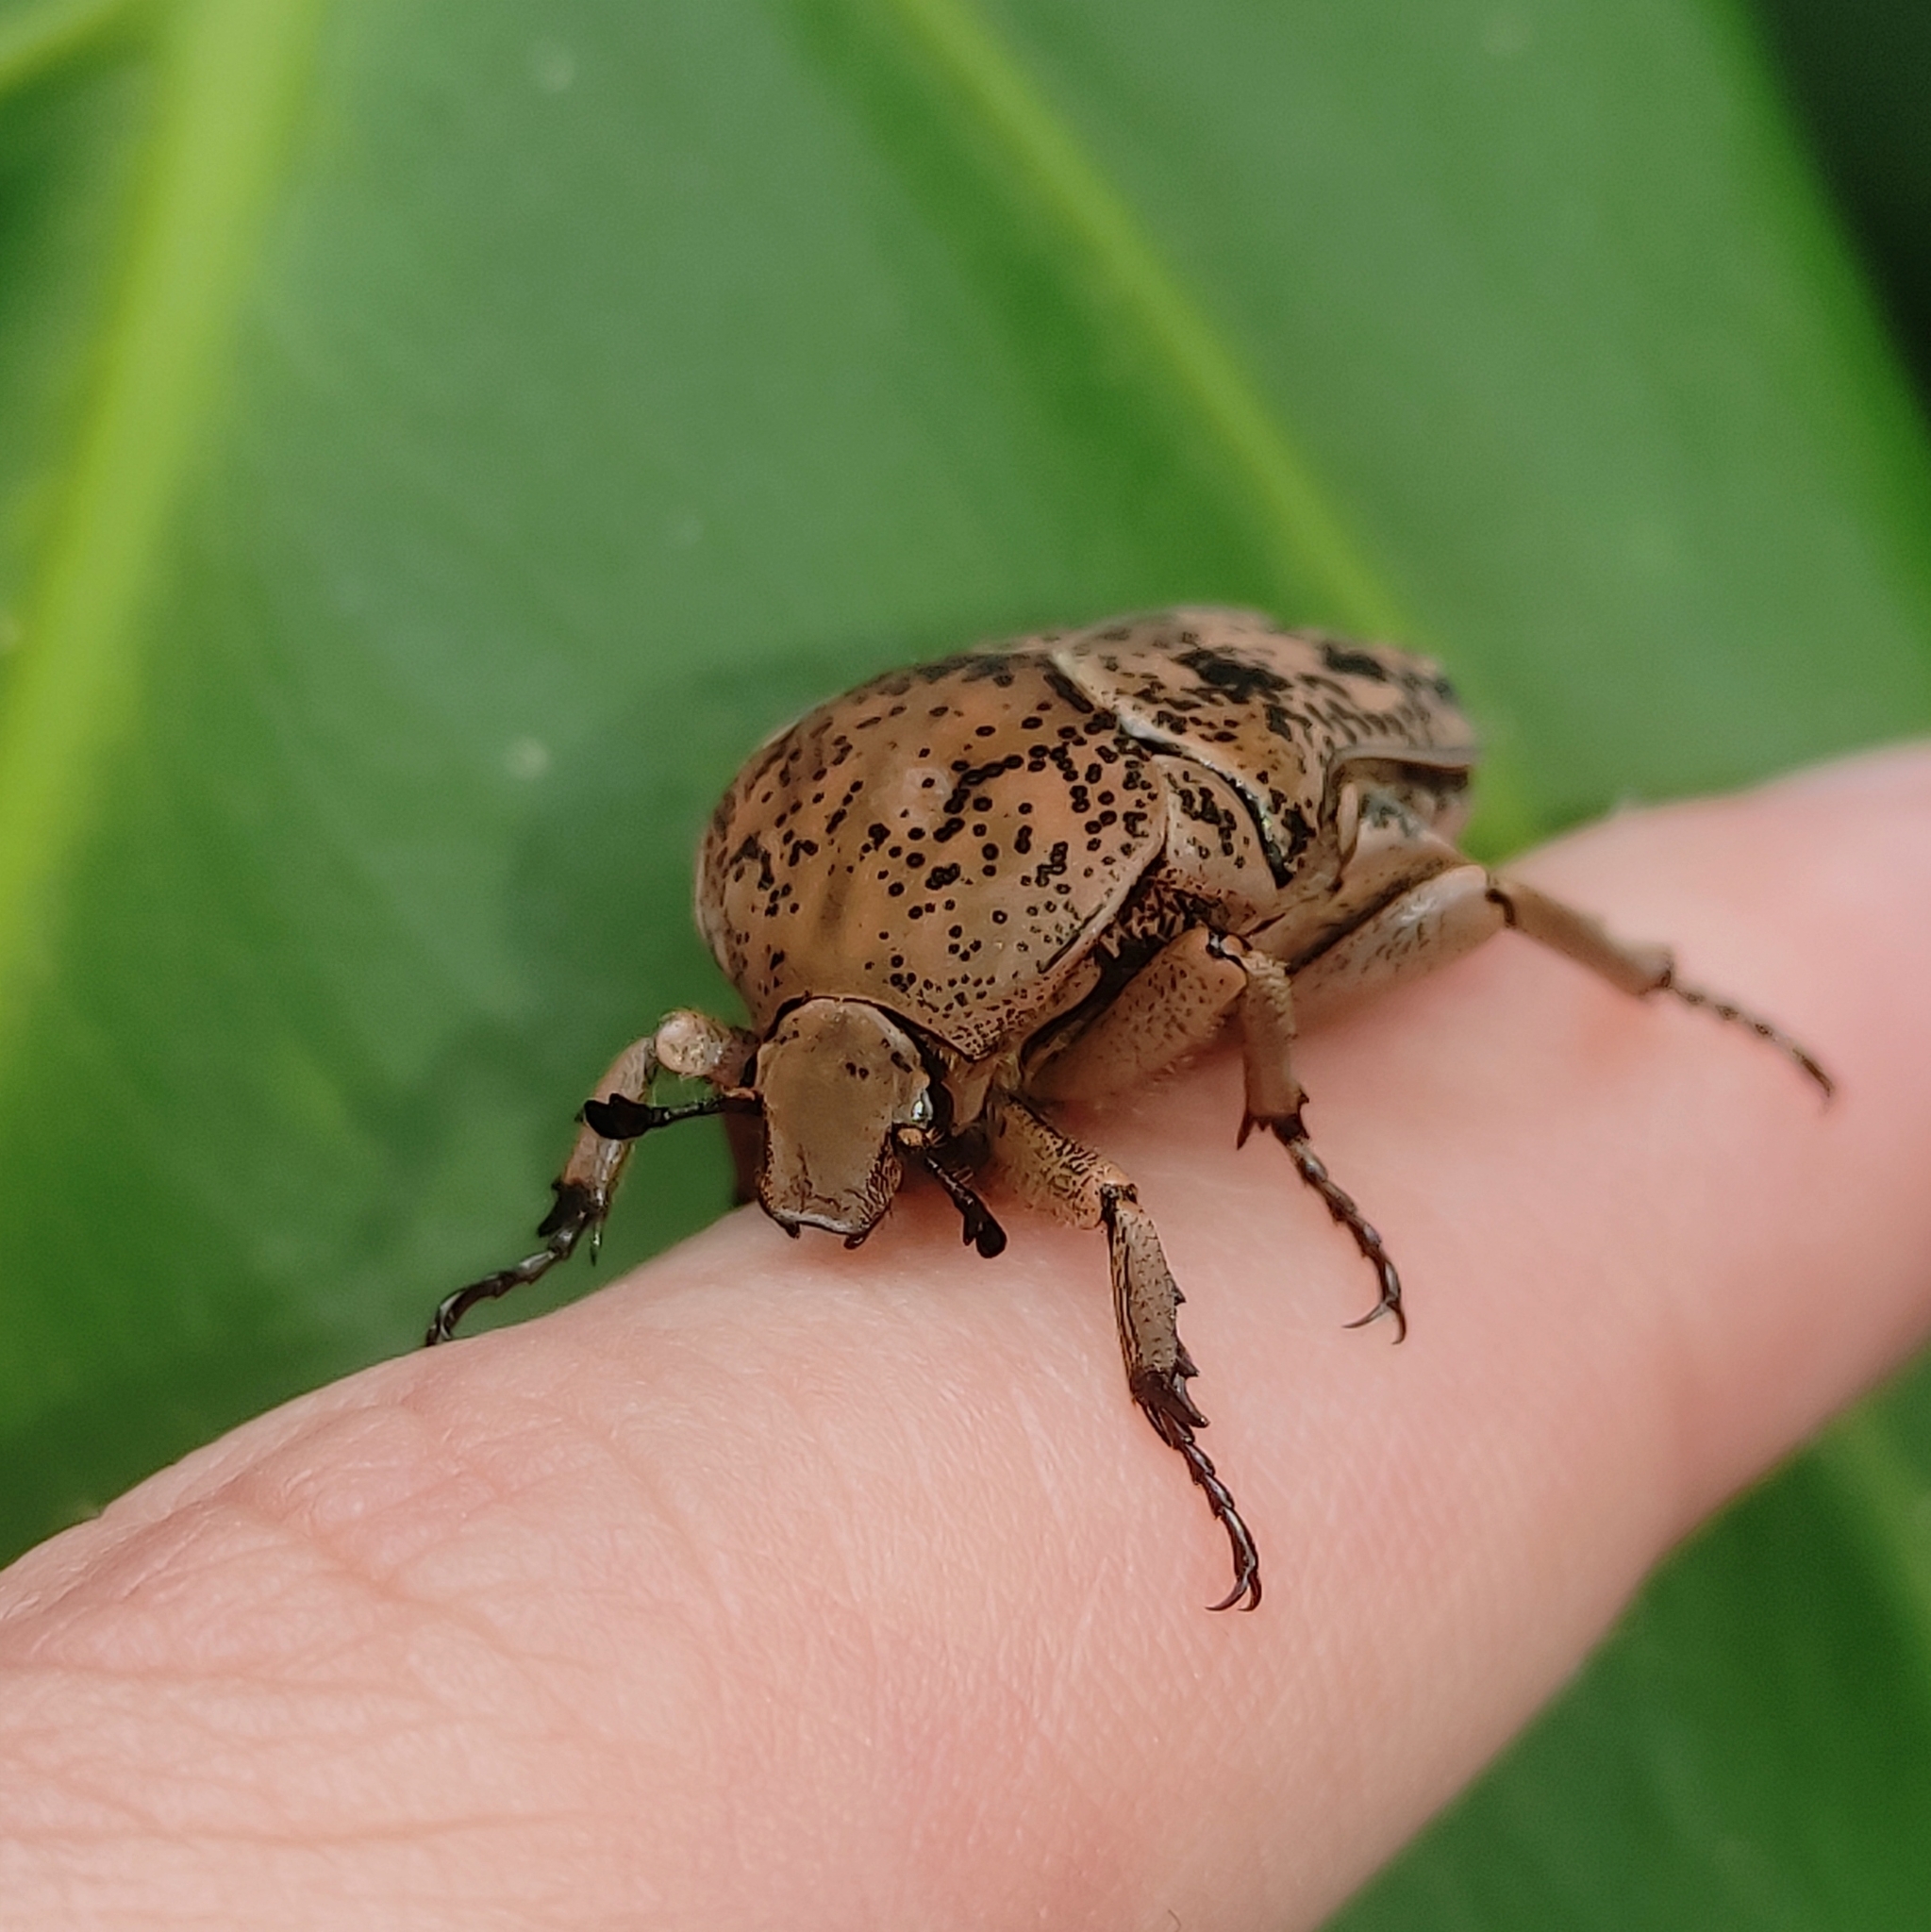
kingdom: Animalia
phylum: Arthropoda
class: Insecta
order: Coleoptera
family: Scarabaeidae
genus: Gymnetis
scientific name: Gymnetis punctipennis
